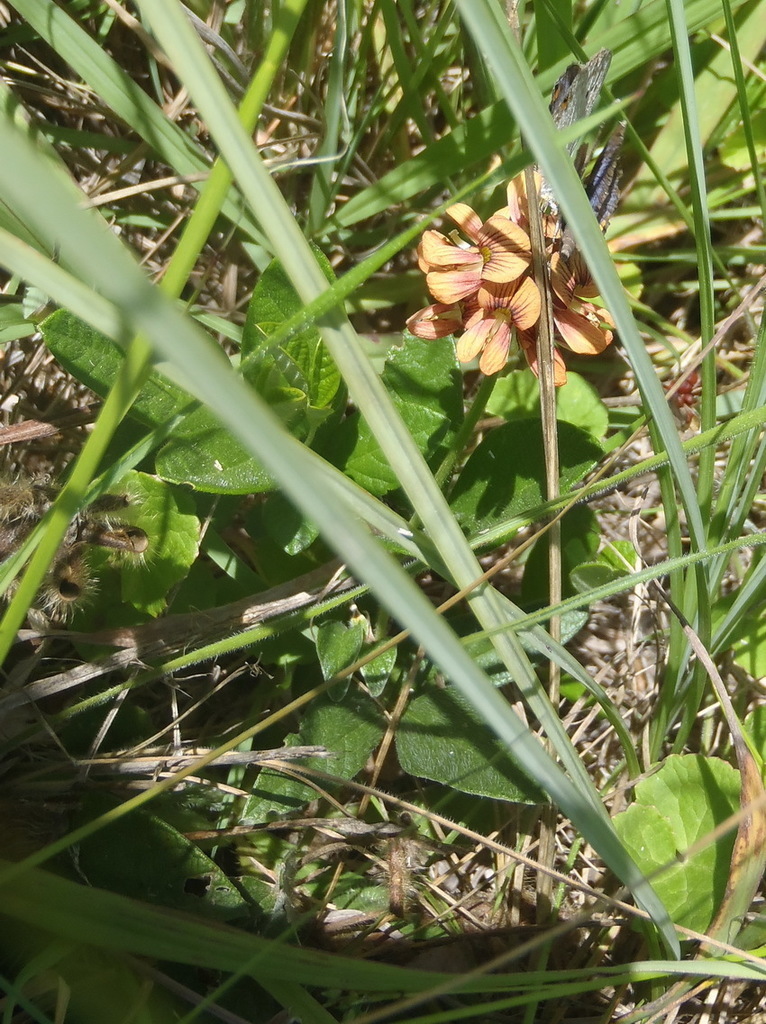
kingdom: Plantae
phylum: Tracheophyta
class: Magnoliopsida
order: Fabales
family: Fabaceae
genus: Eriosema
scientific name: Eriosema squarrosum
